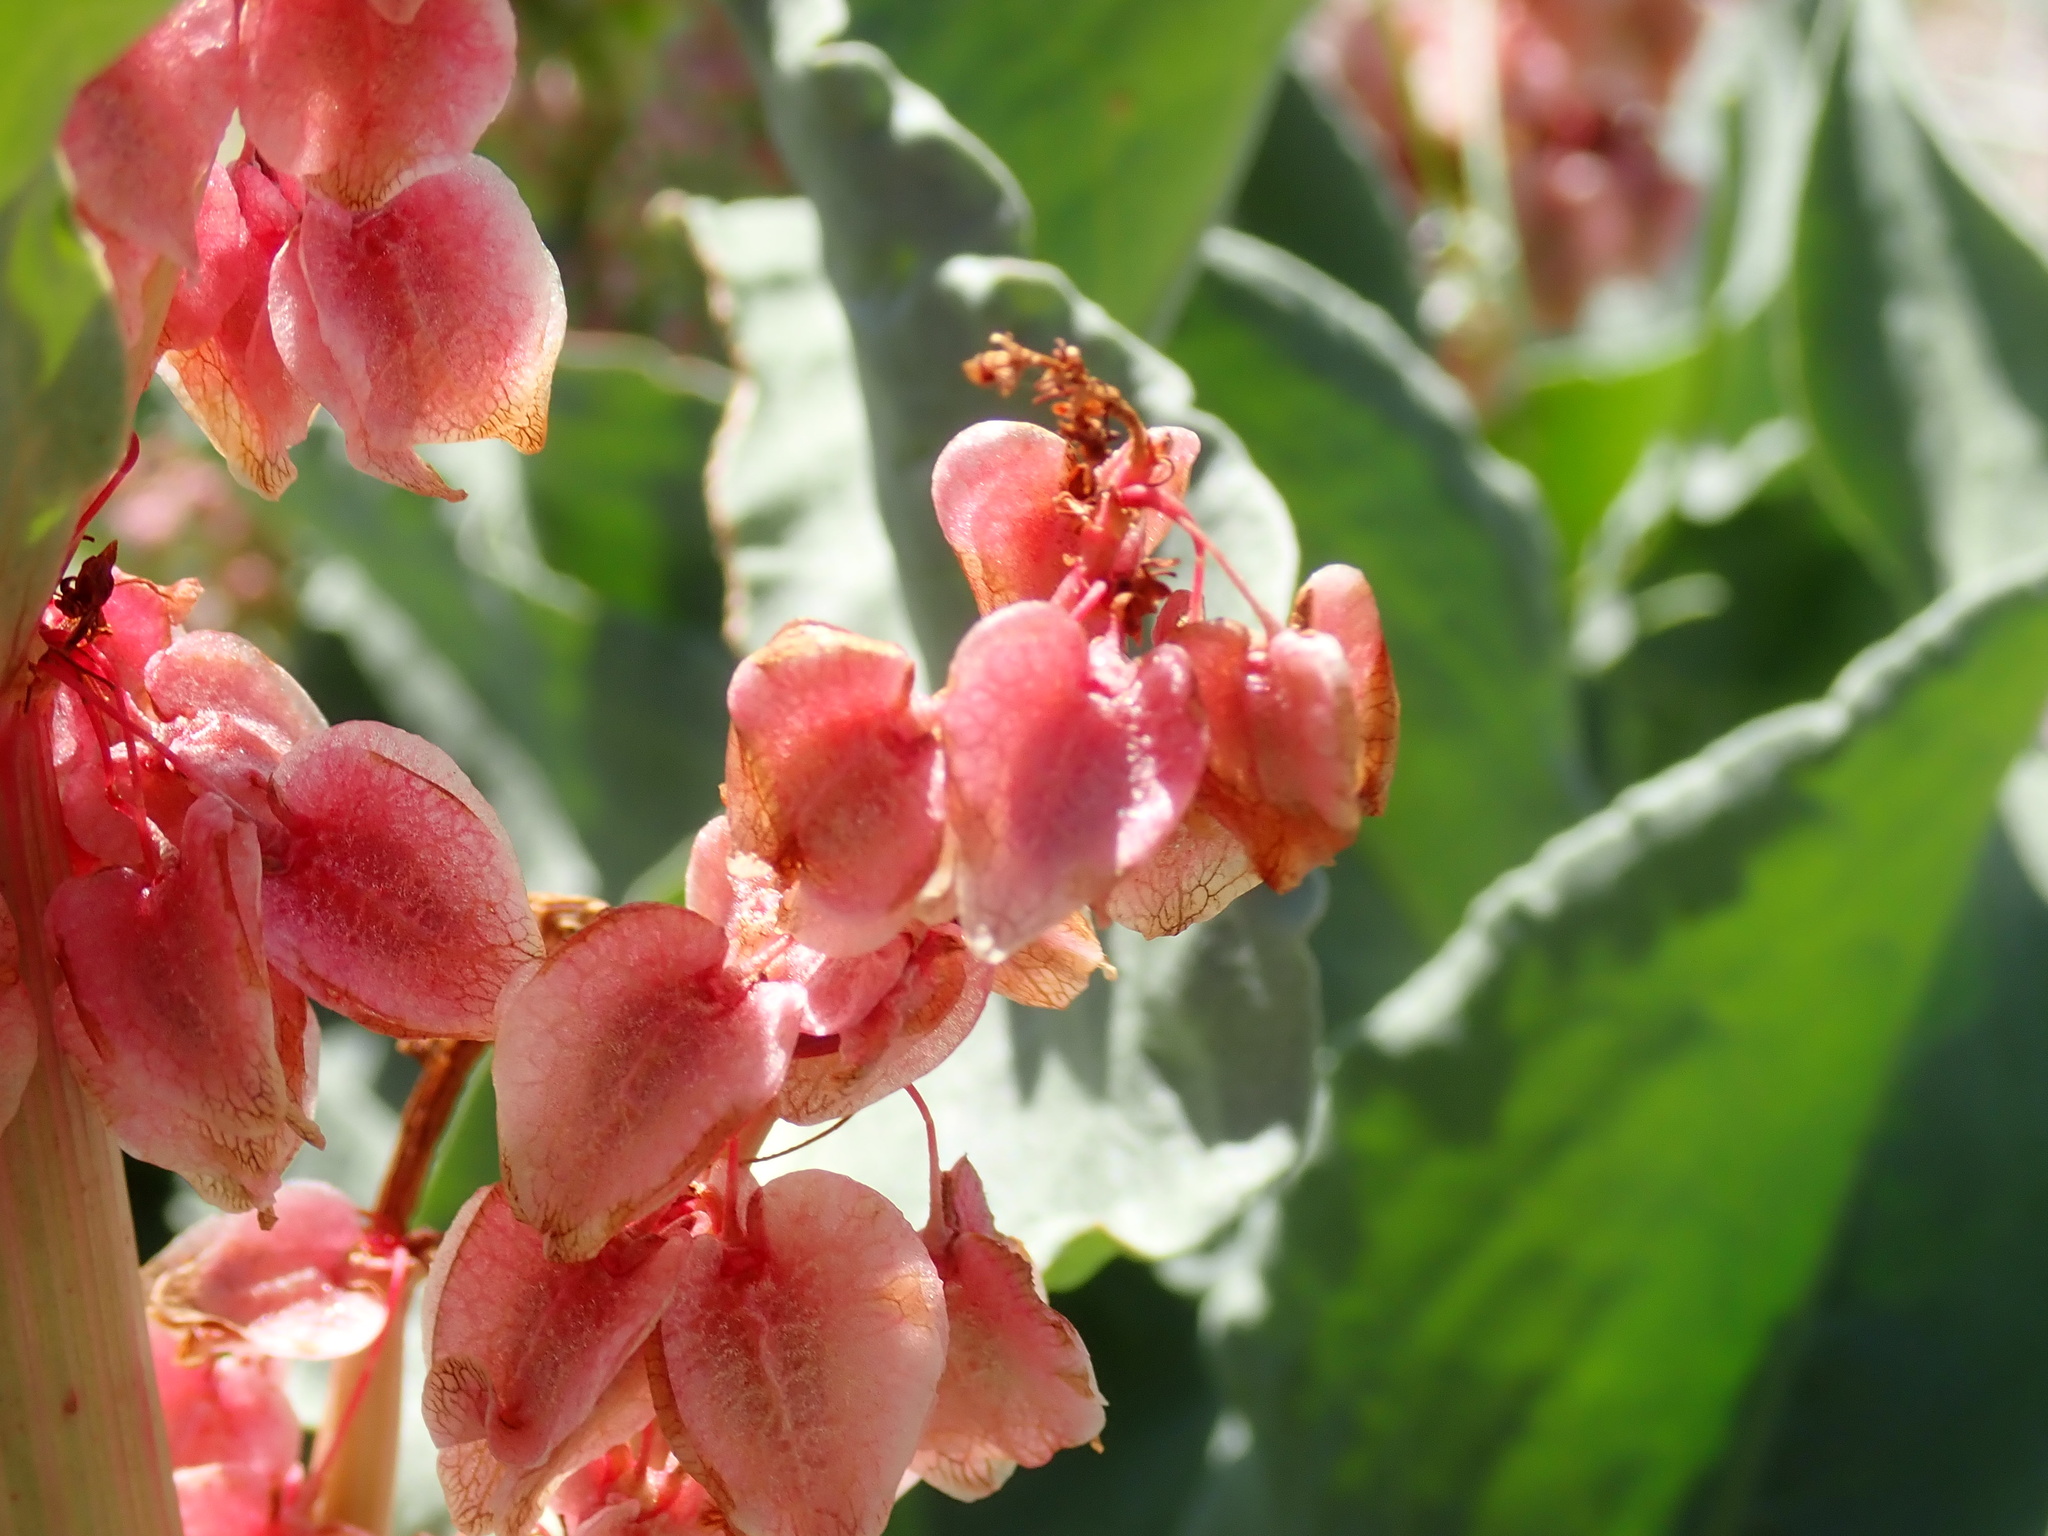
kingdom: Plantae
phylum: Tracheophyta
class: Magnoliopsida
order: Caryophyllales
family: Polygonaceae
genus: Rumex
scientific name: Rumex hymenosepalus
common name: Ganagra
